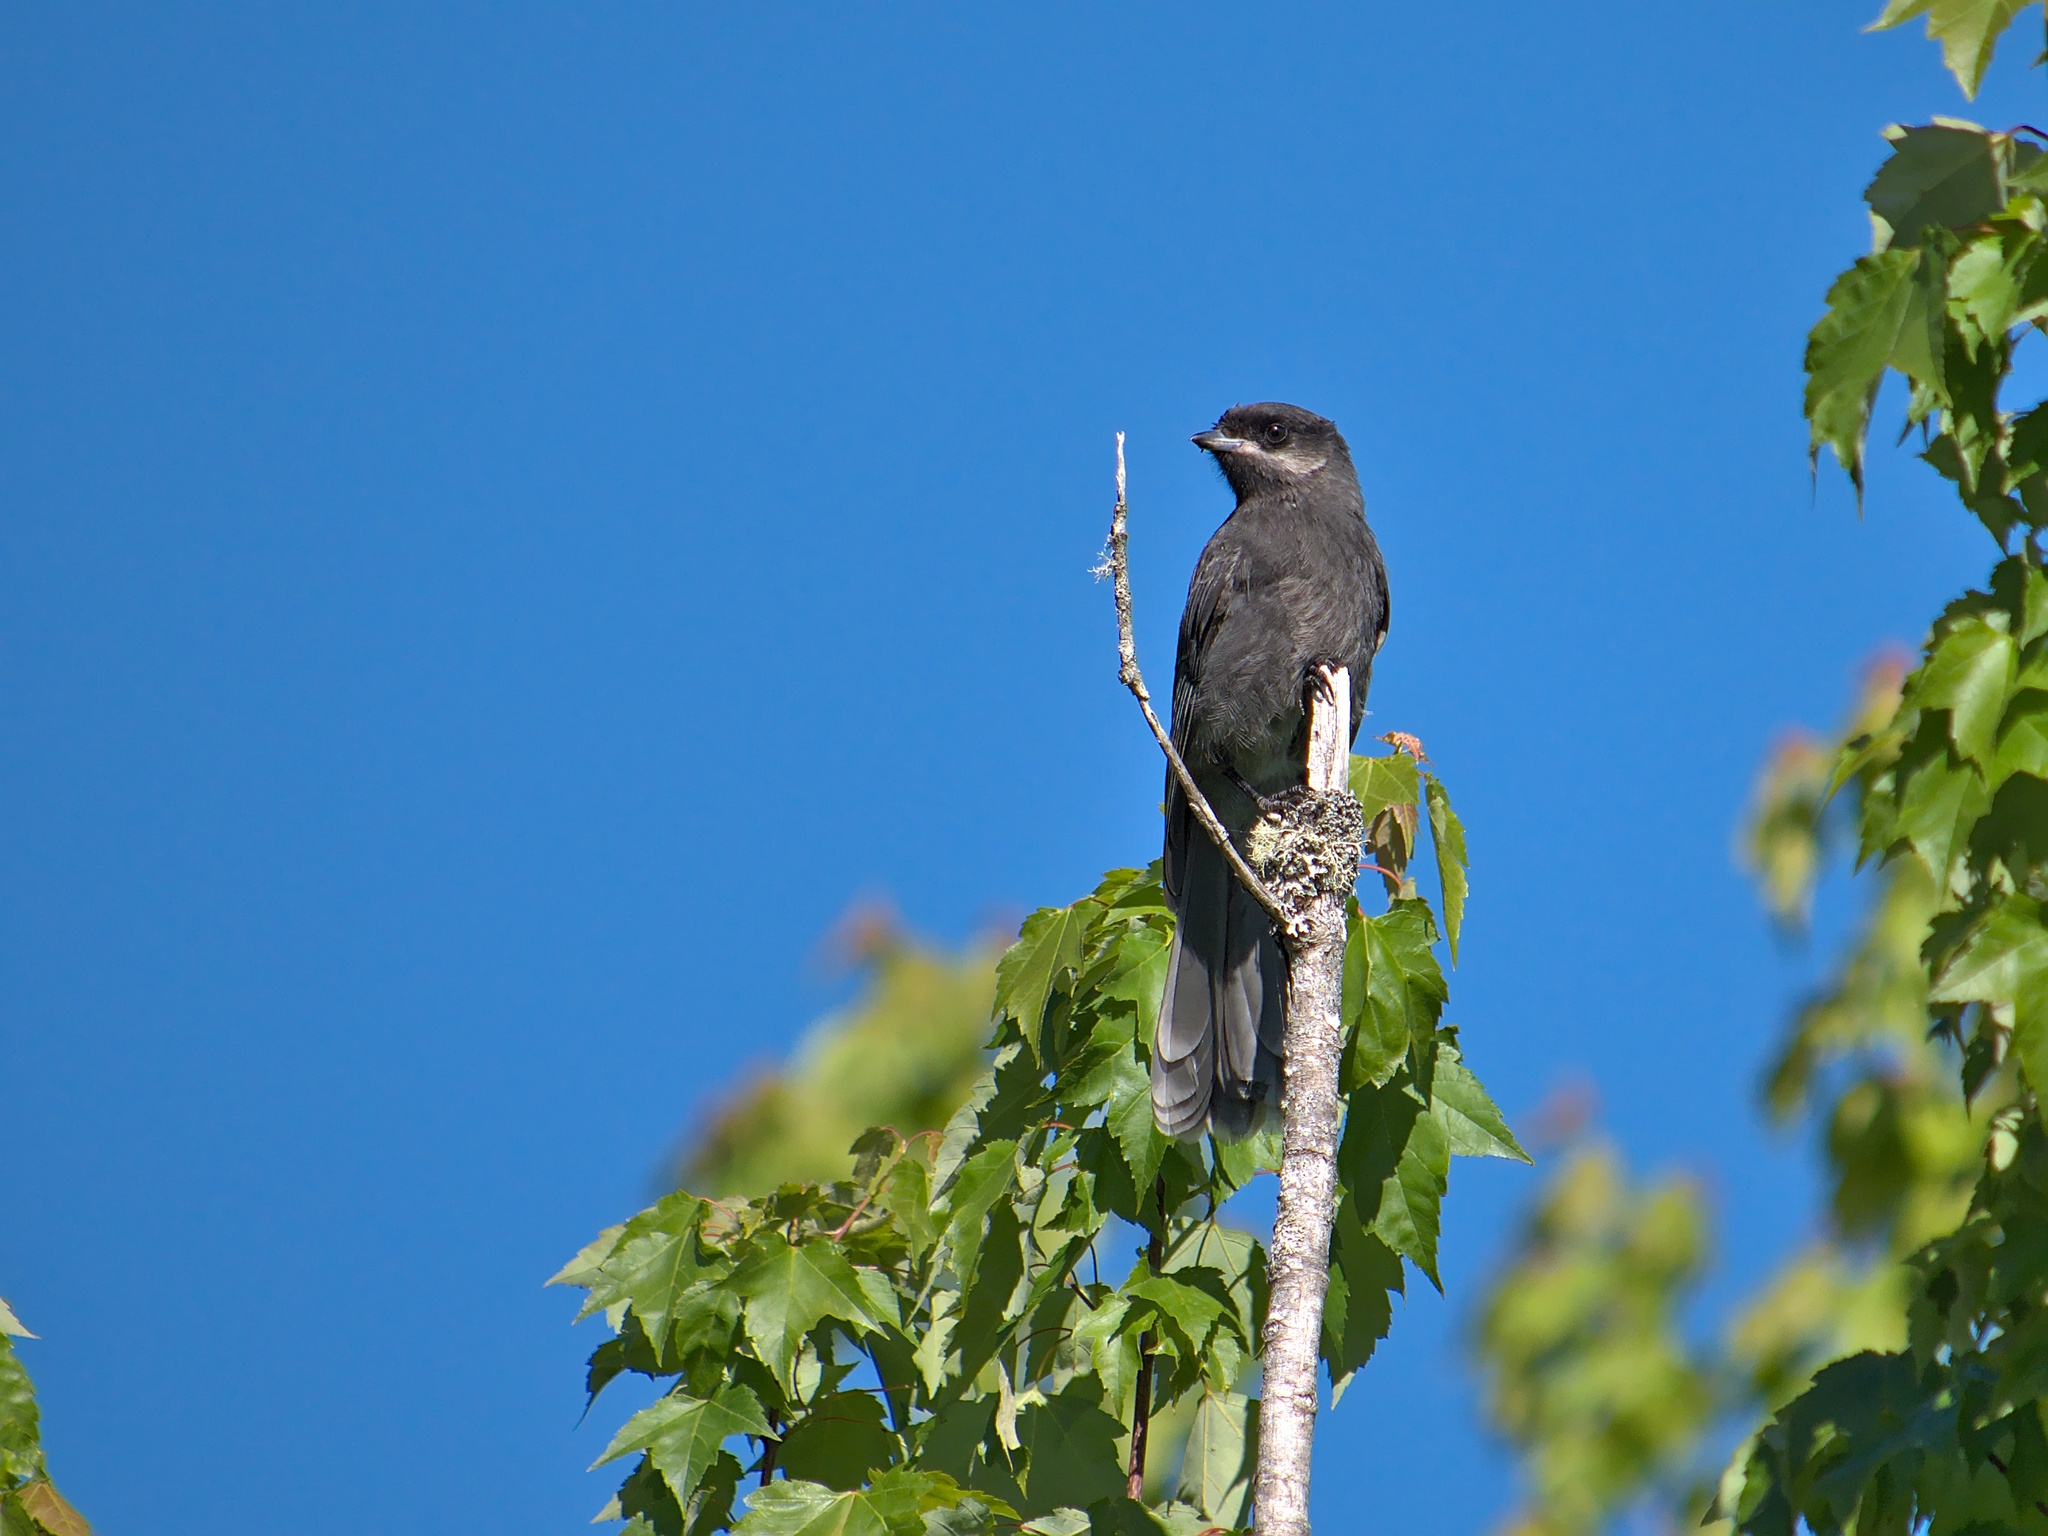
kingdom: Animalia
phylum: Chordata
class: Aves
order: Passeriformes
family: Corvidae
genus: Perisoreus
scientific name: Perisoreus canadensis
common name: Gray jay
